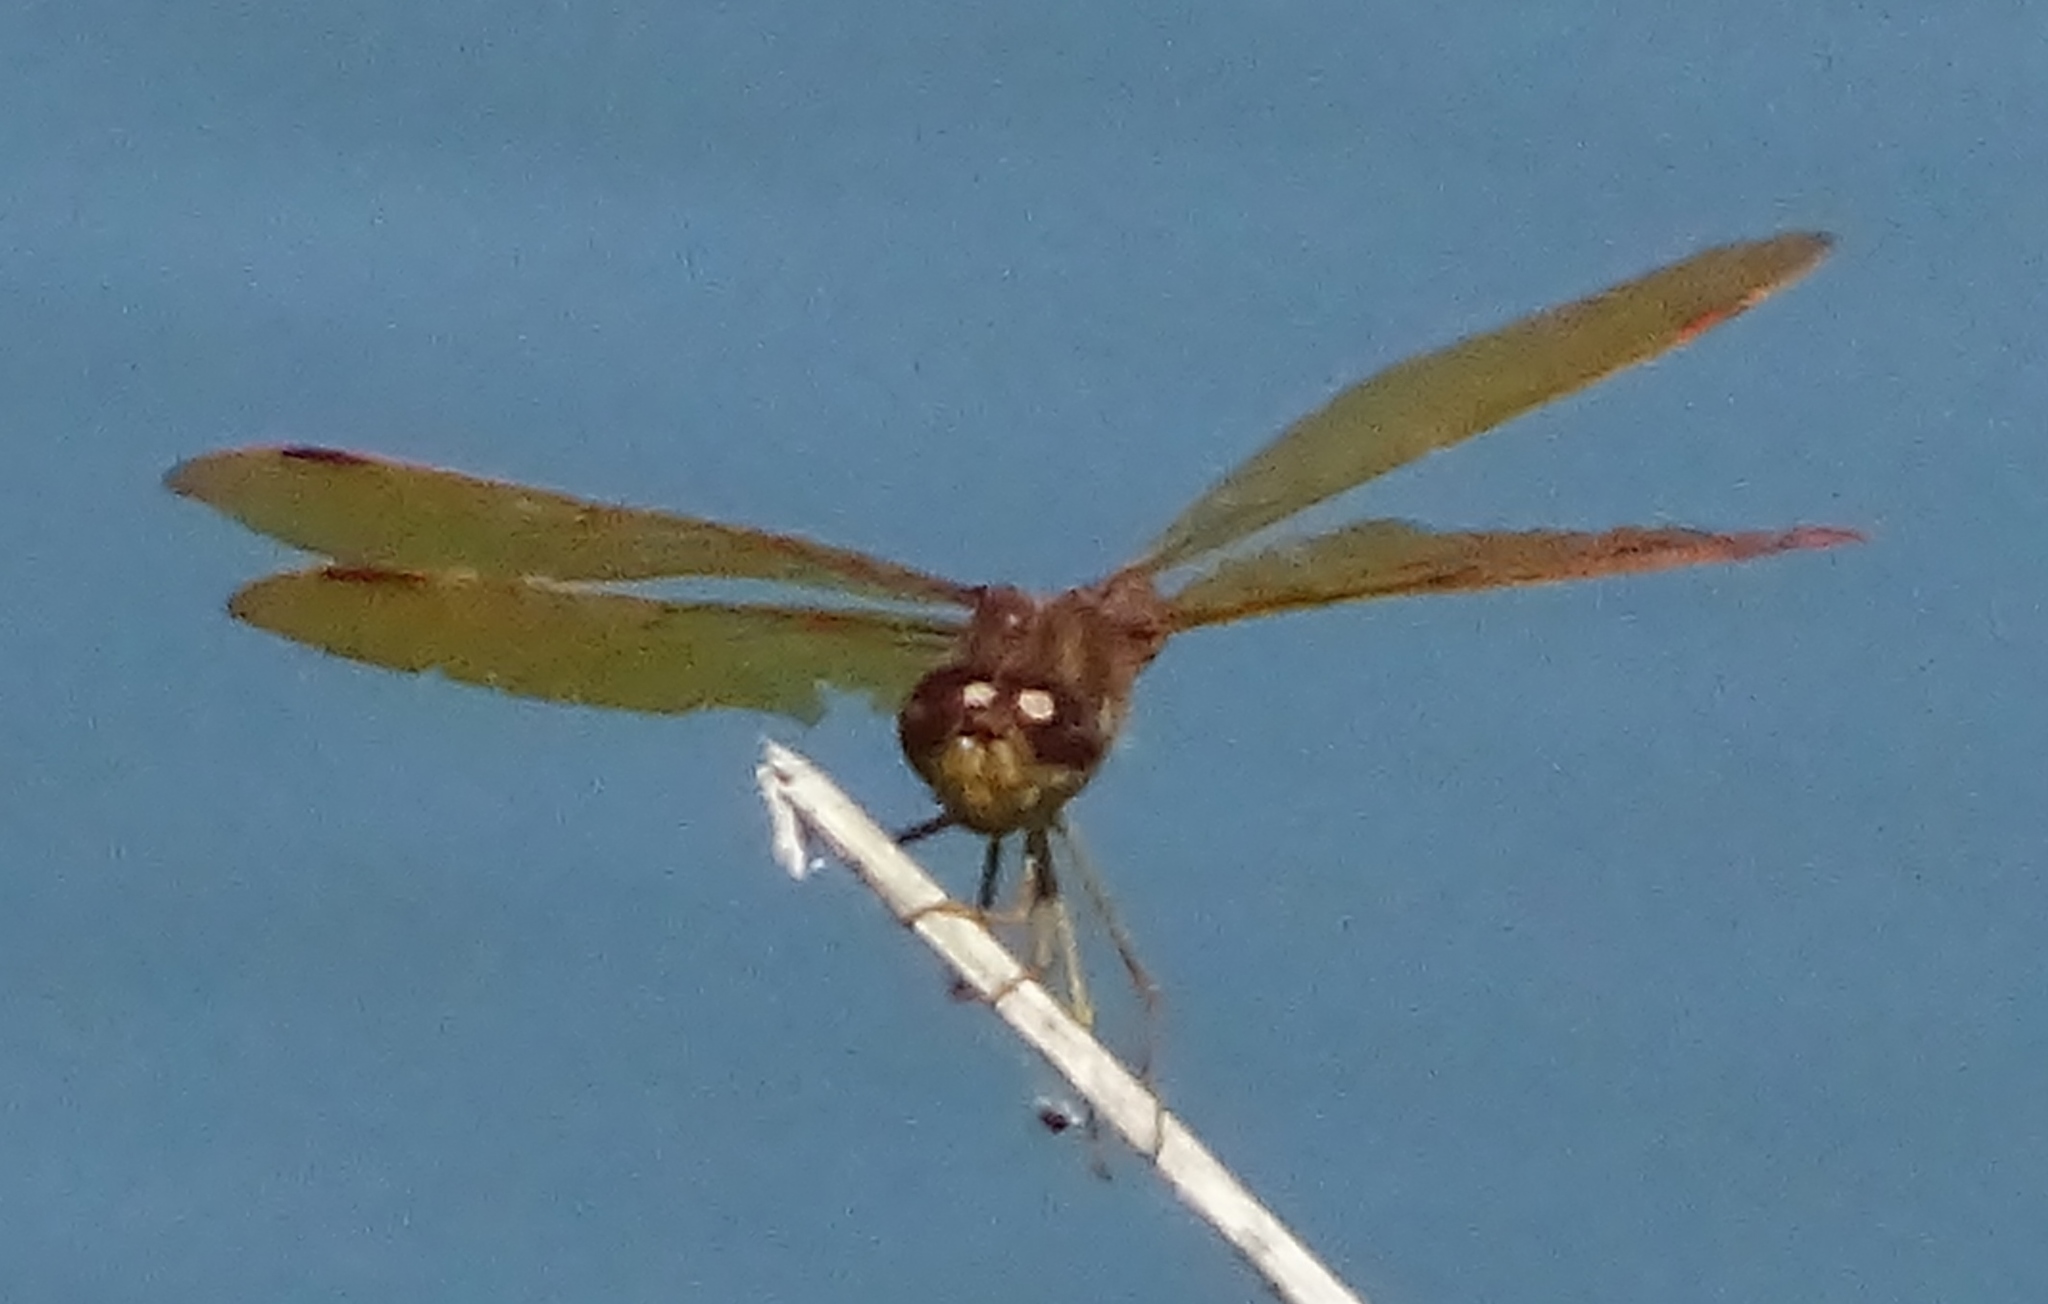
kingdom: Animalia
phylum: Arthropoda
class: Insecta
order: Odonata
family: Libellulidae
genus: Perithemis
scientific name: Perithemis tenera
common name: Eastern amberwing
